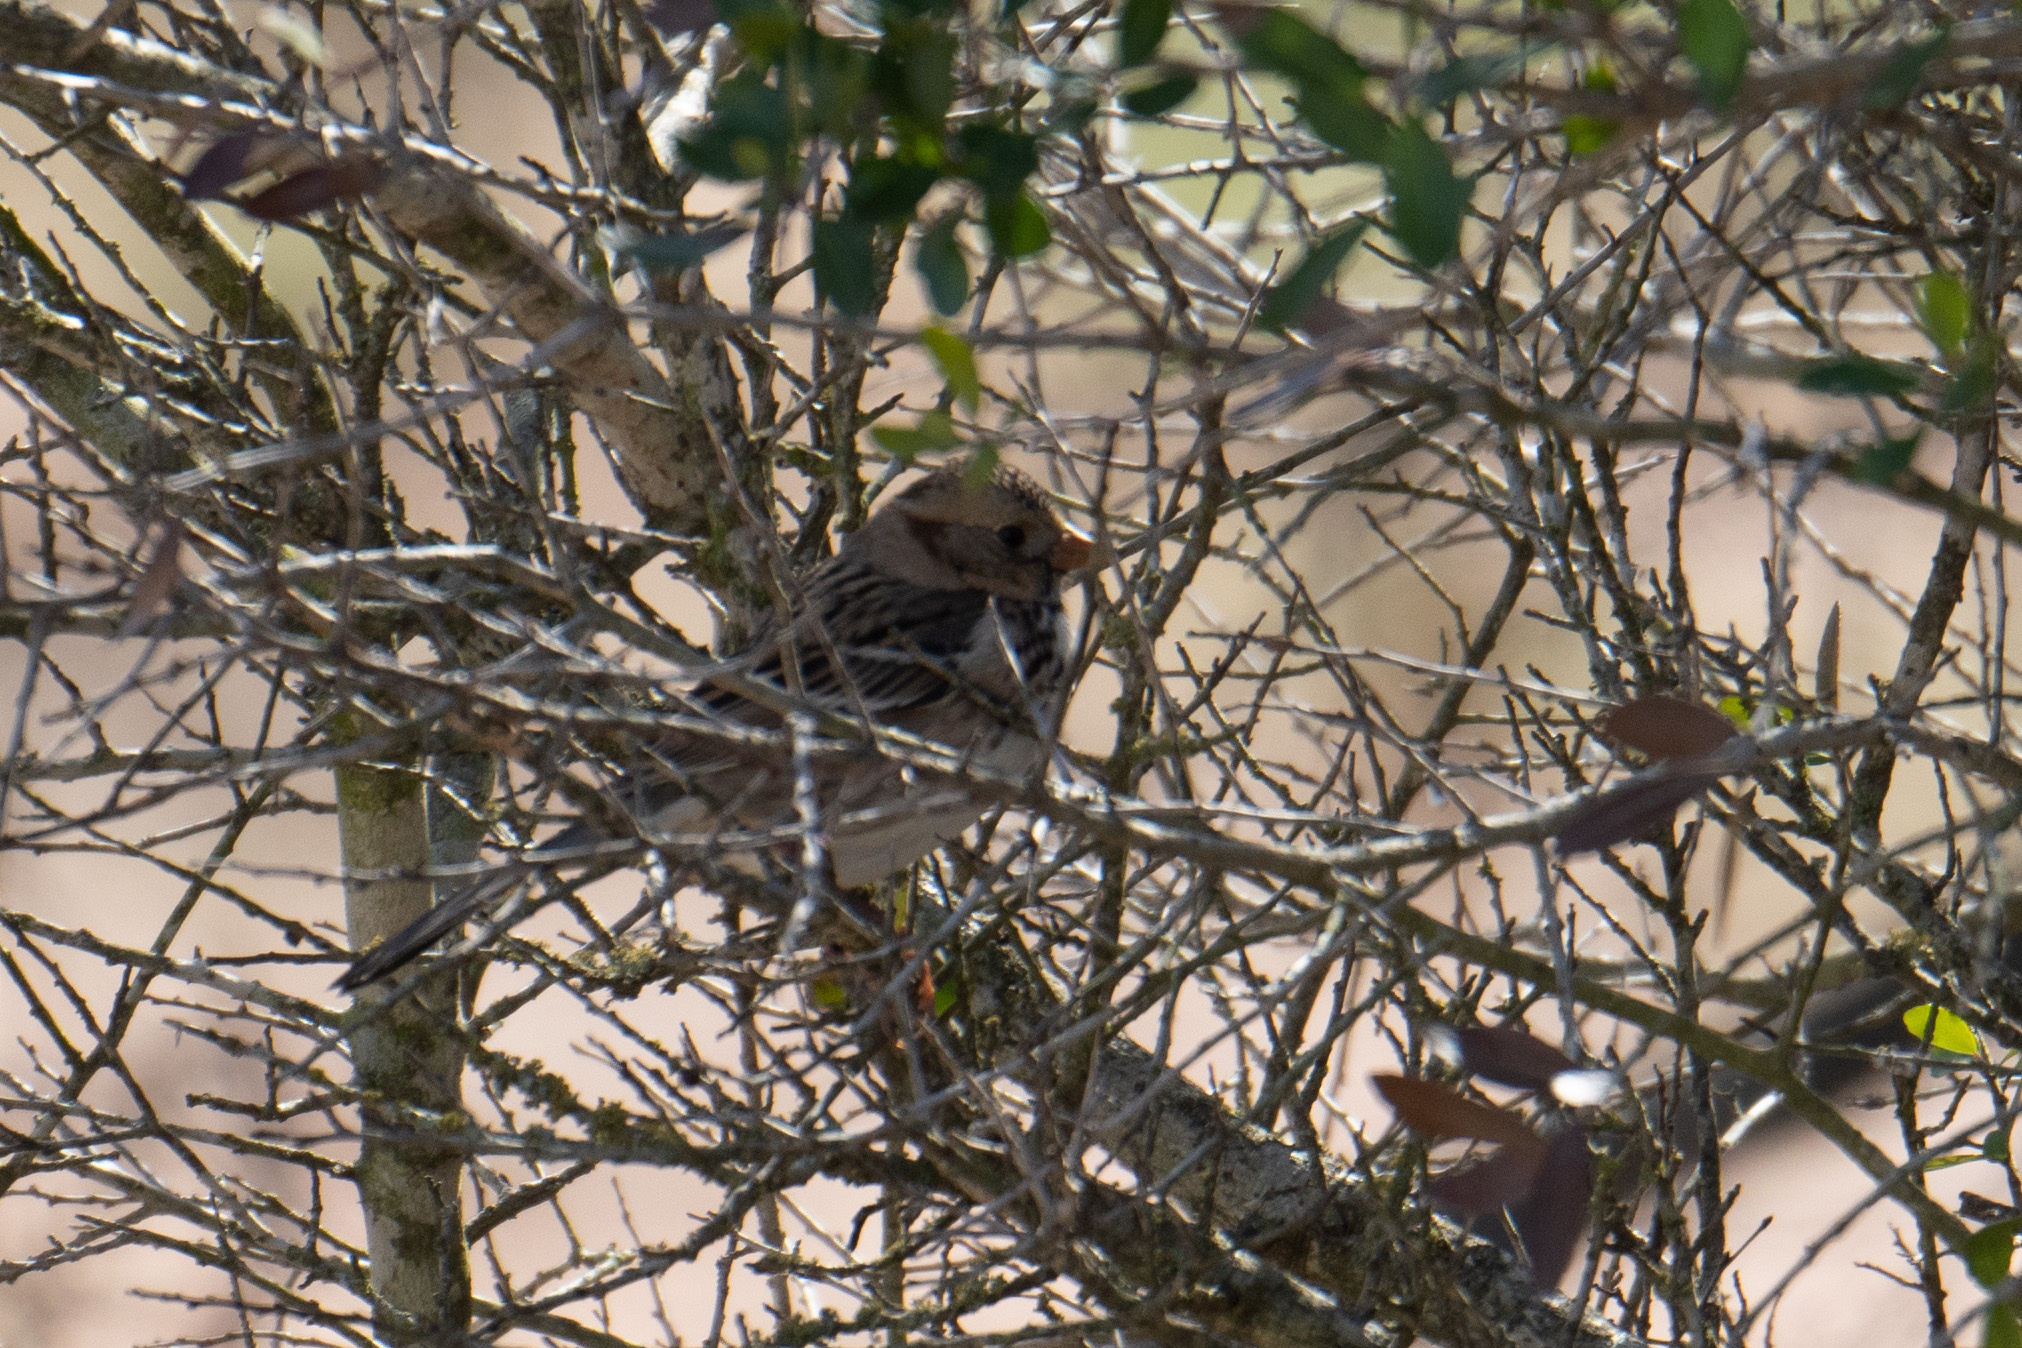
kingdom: Animalia
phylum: Chordata
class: Aves
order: Passeriformes
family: Passerellidae
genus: Zonotrichia
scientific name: Zonotrichia querula
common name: Harris's sparrow
